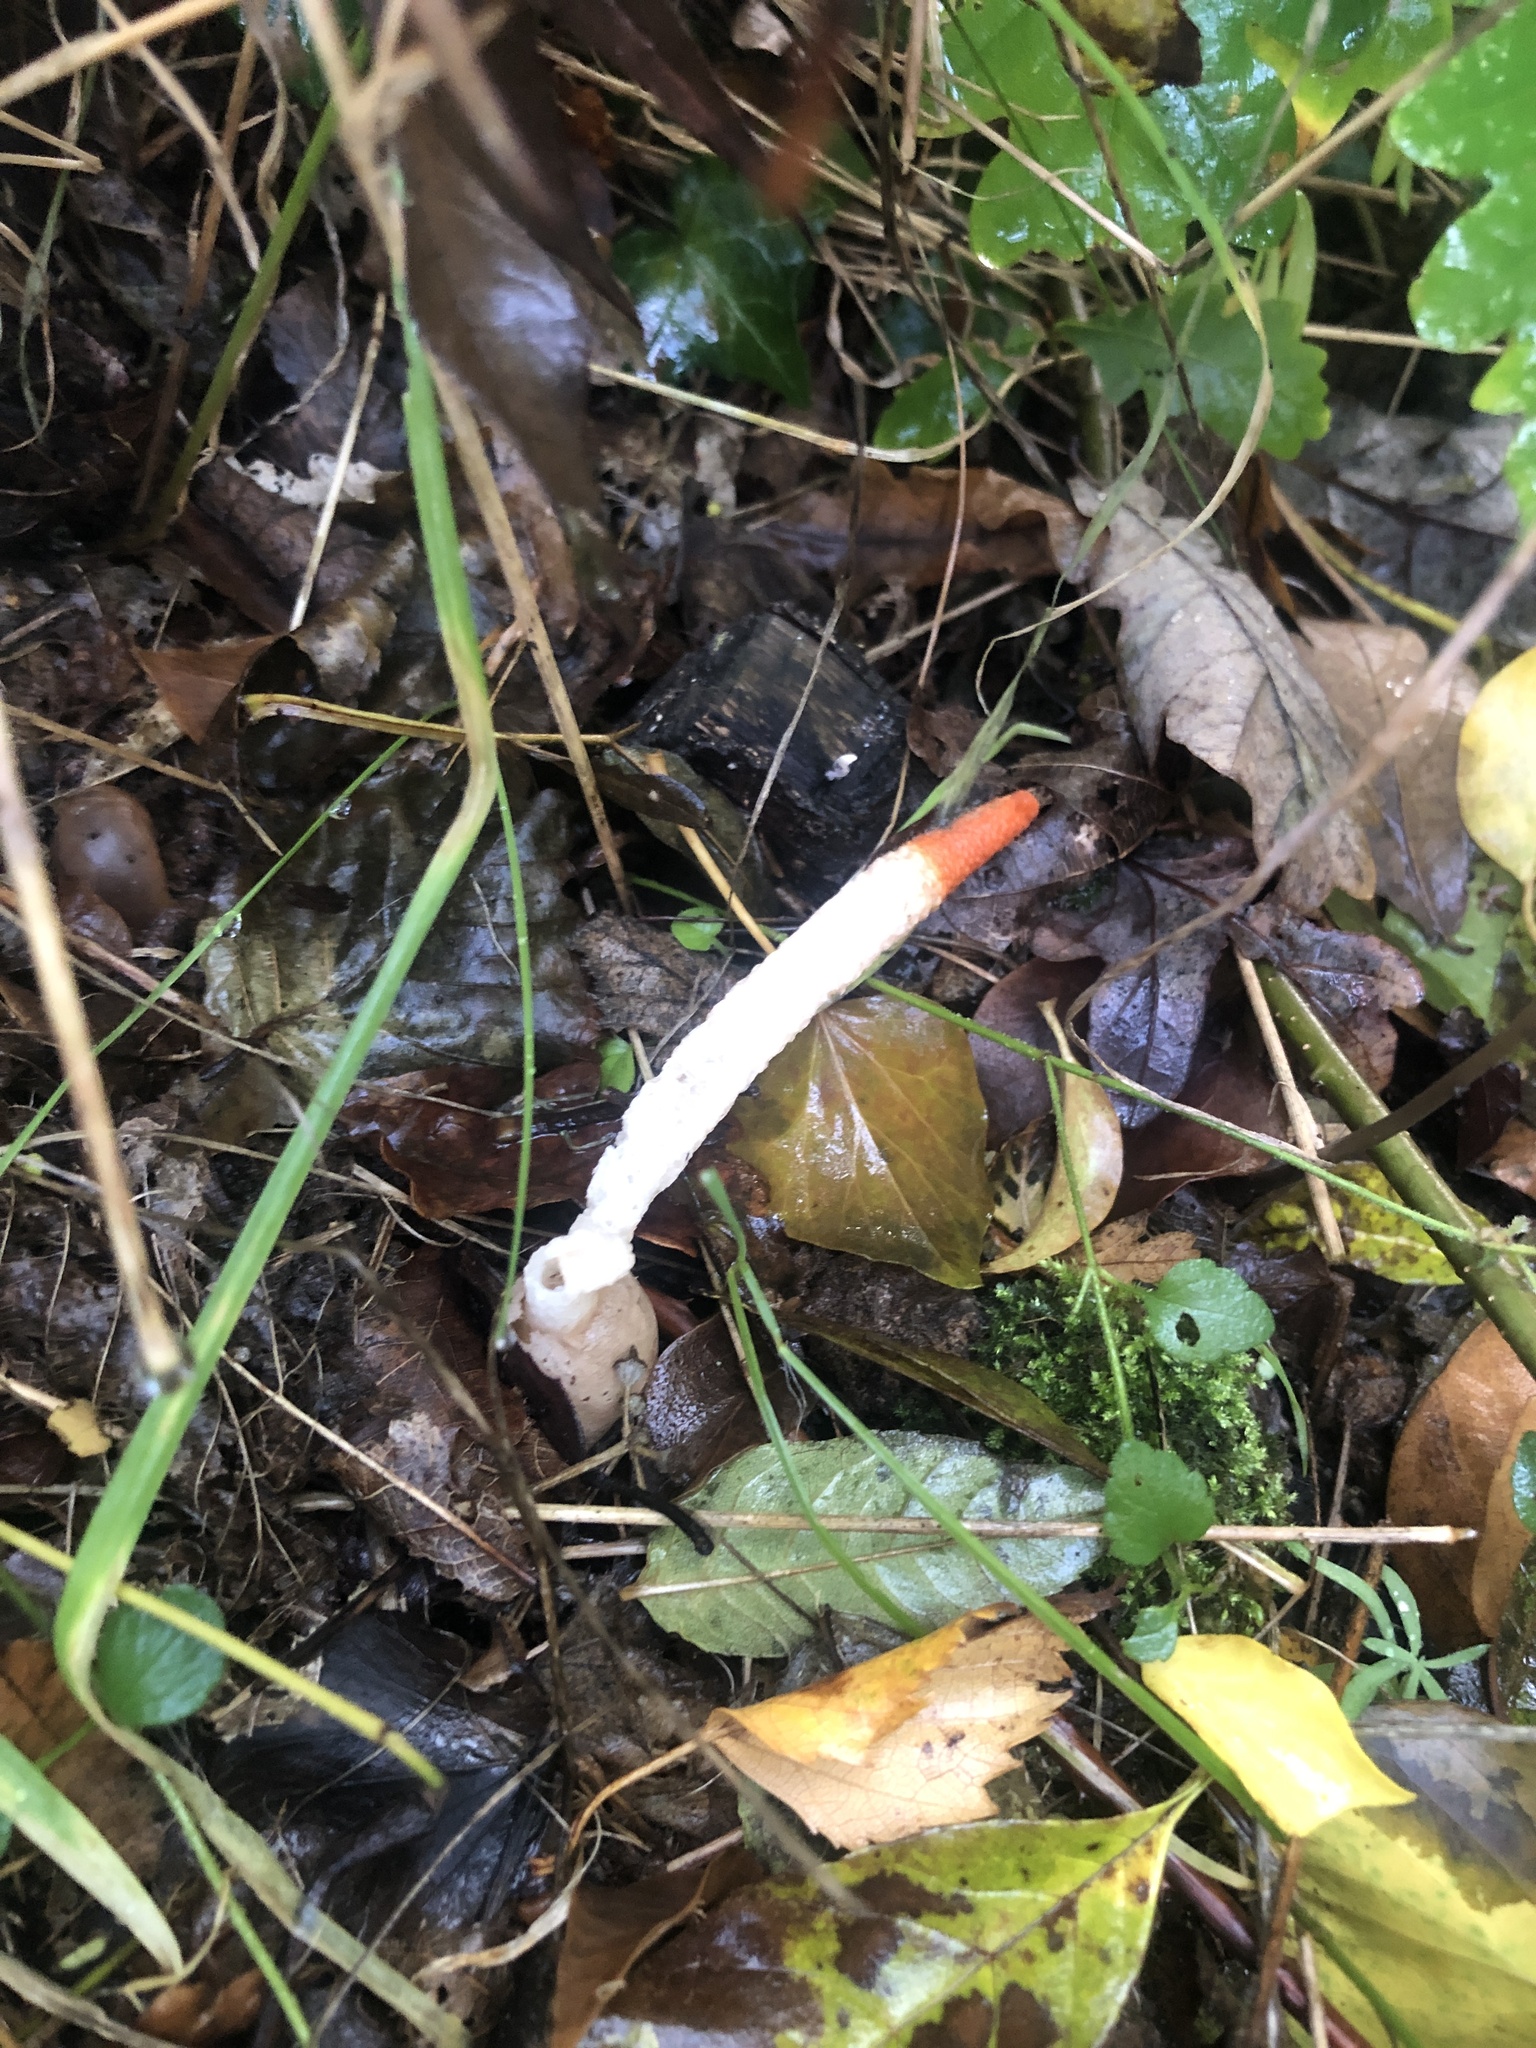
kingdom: Fungi
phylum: Basidiomycota
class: Agaricomycetes
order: Phallales
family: Phallaceae
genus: Mutinus
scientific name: Mutinus caninus
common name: Dog stinkhorn
